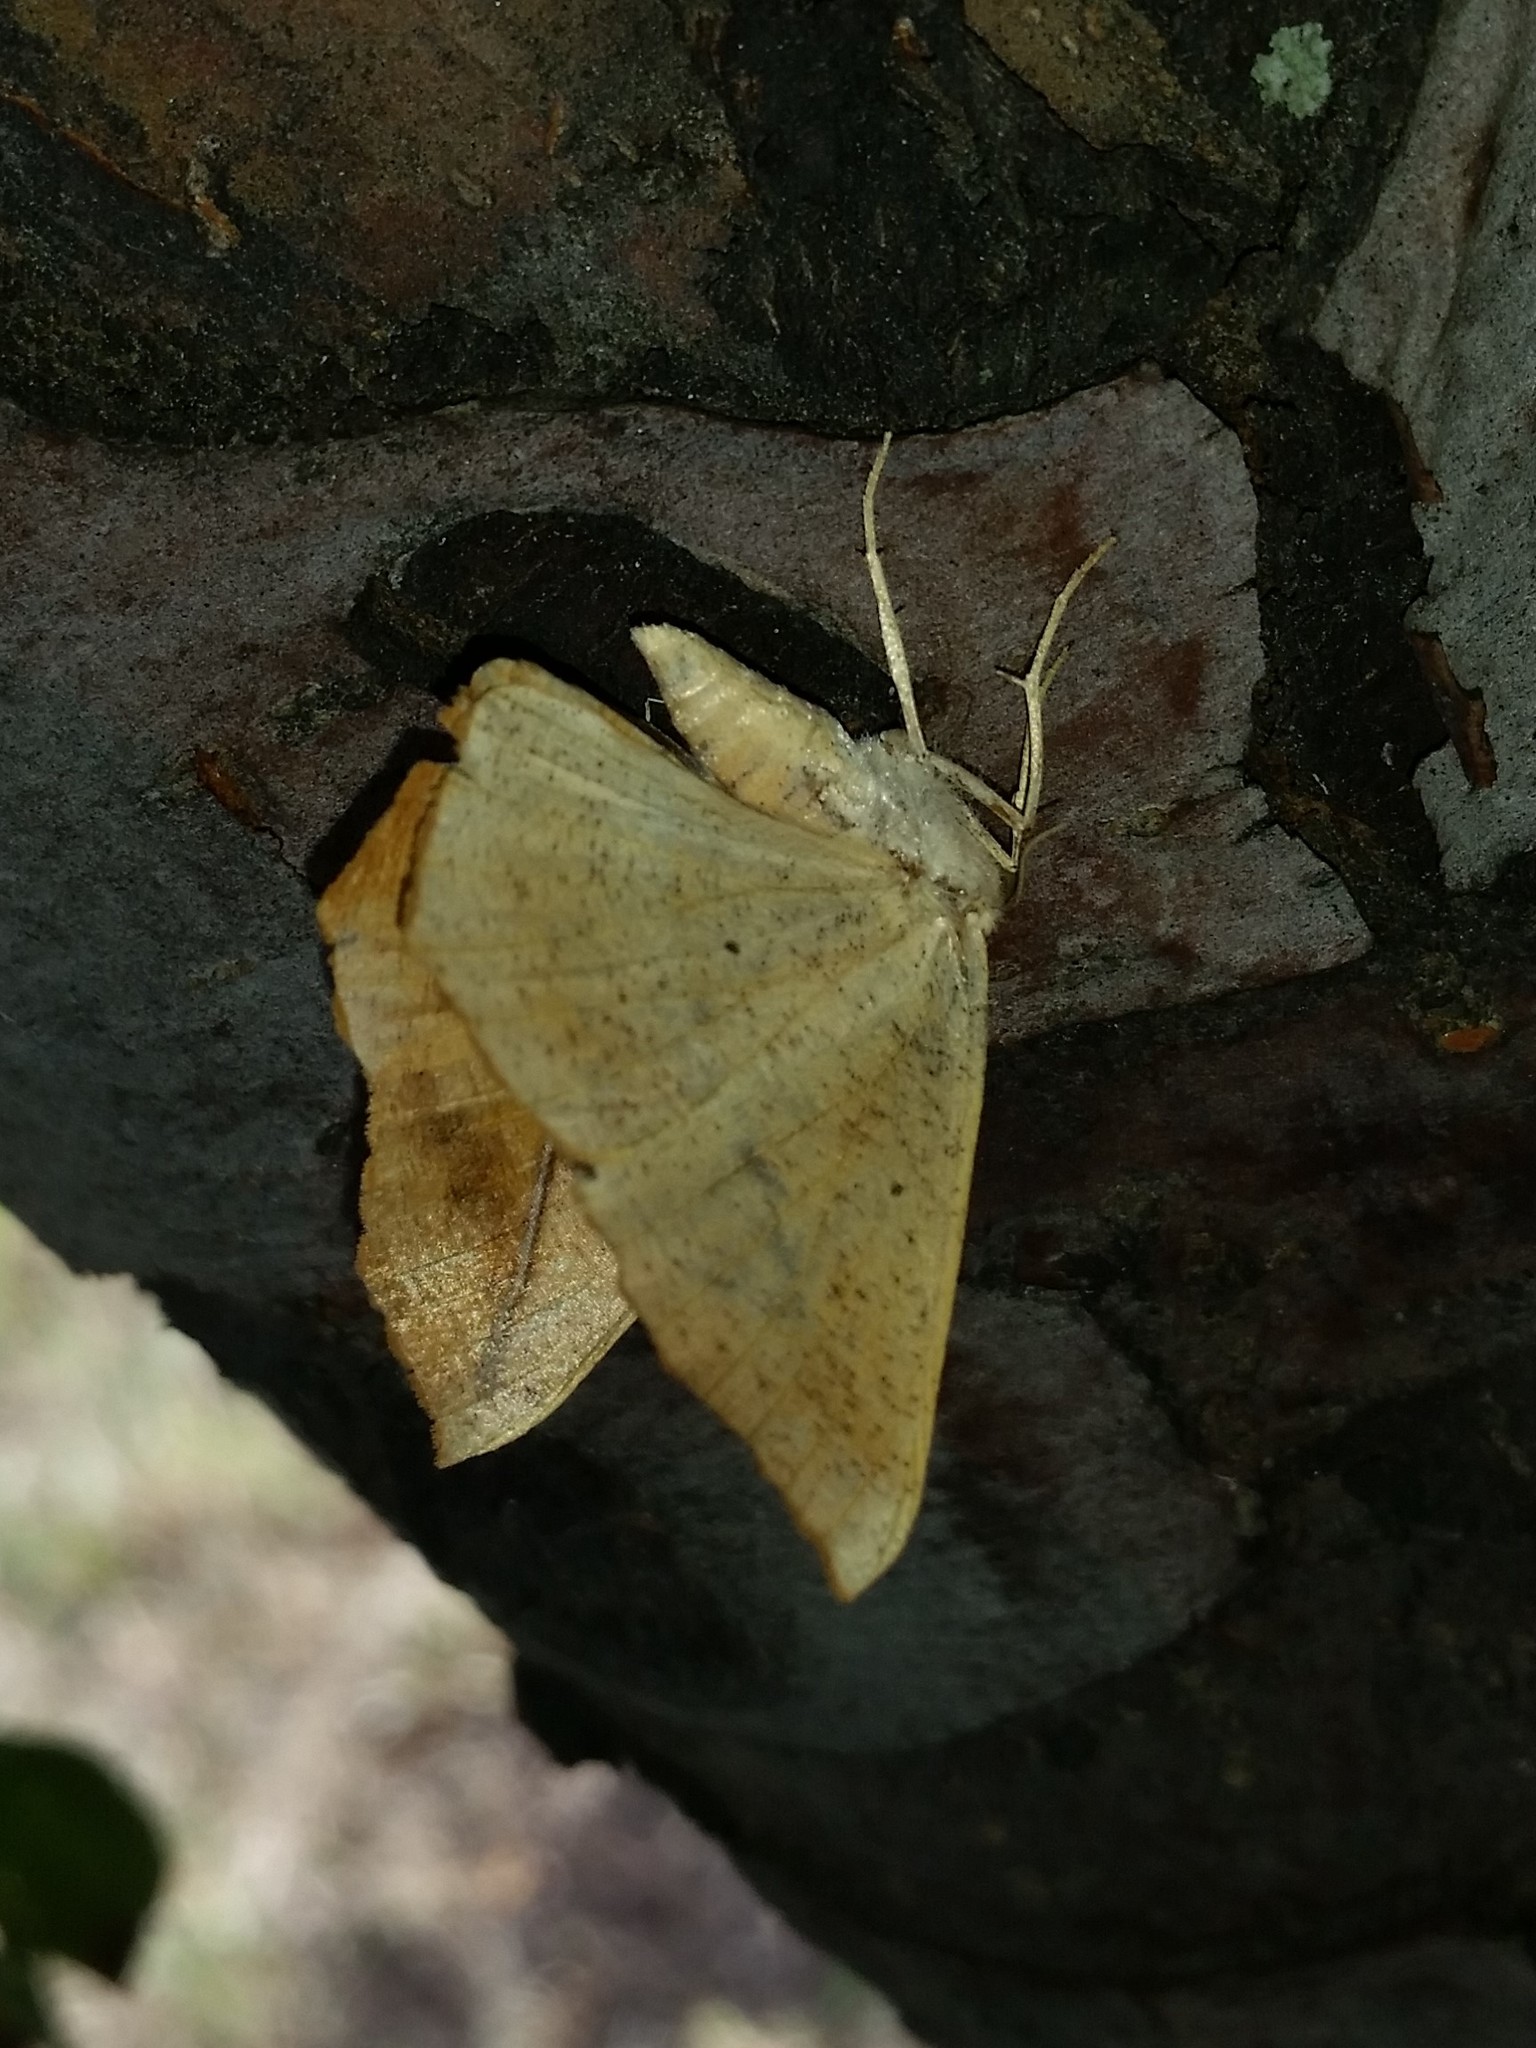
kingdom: Animalia
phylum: Arthropoda
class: Insecta
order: Lepidoptera
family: Geometridae
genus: Prochoerodes
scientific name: Prochoerodes lineola
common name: Large maple spanworm
